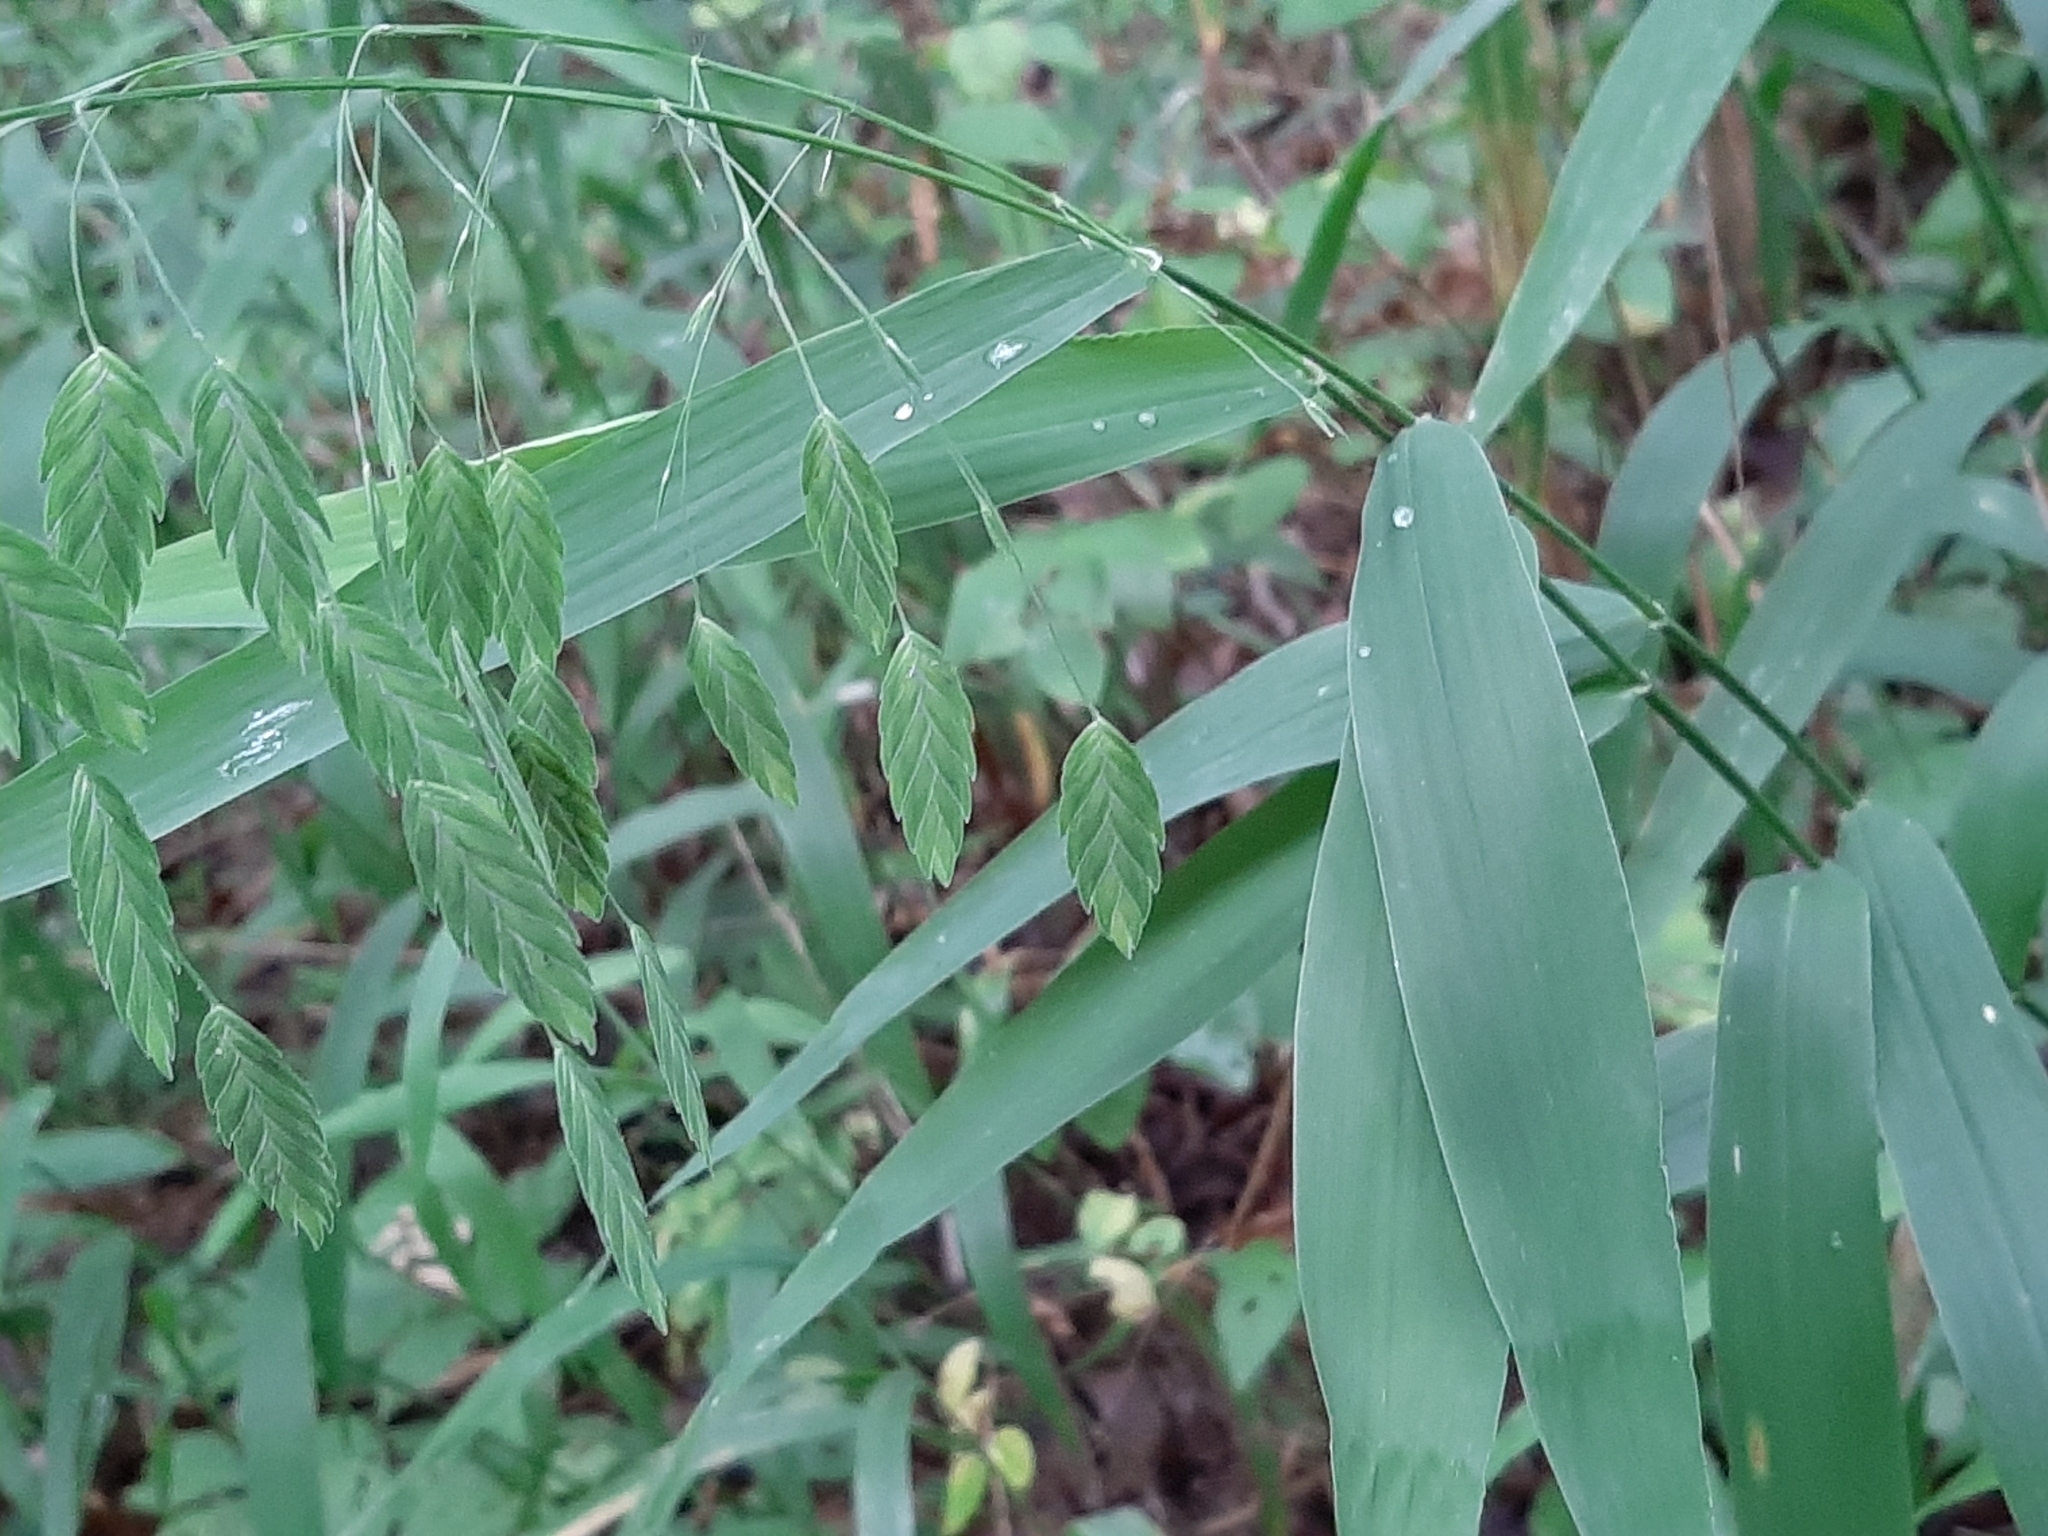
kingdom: Plantae
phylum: Tracheophyta
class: Liliopsida
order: Poales
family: Poaceae
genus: Chasmanthium
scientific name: Chasmanthium latifolium
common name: Broad-leaved chasmanthium
